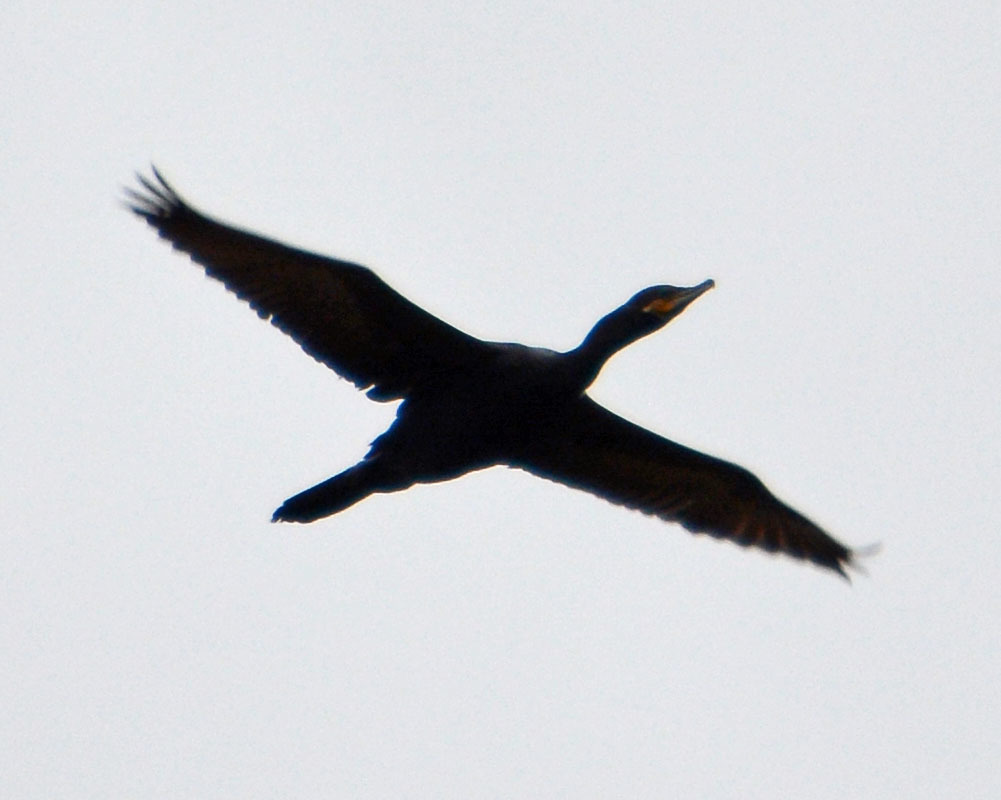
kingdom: Animalia
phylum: Chordata
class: Aves
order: Suliformes
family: Phalacrocoracidae
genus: Phalacrocorax
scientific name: Phalacrocorax auritus
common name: Double-crested cormorant
